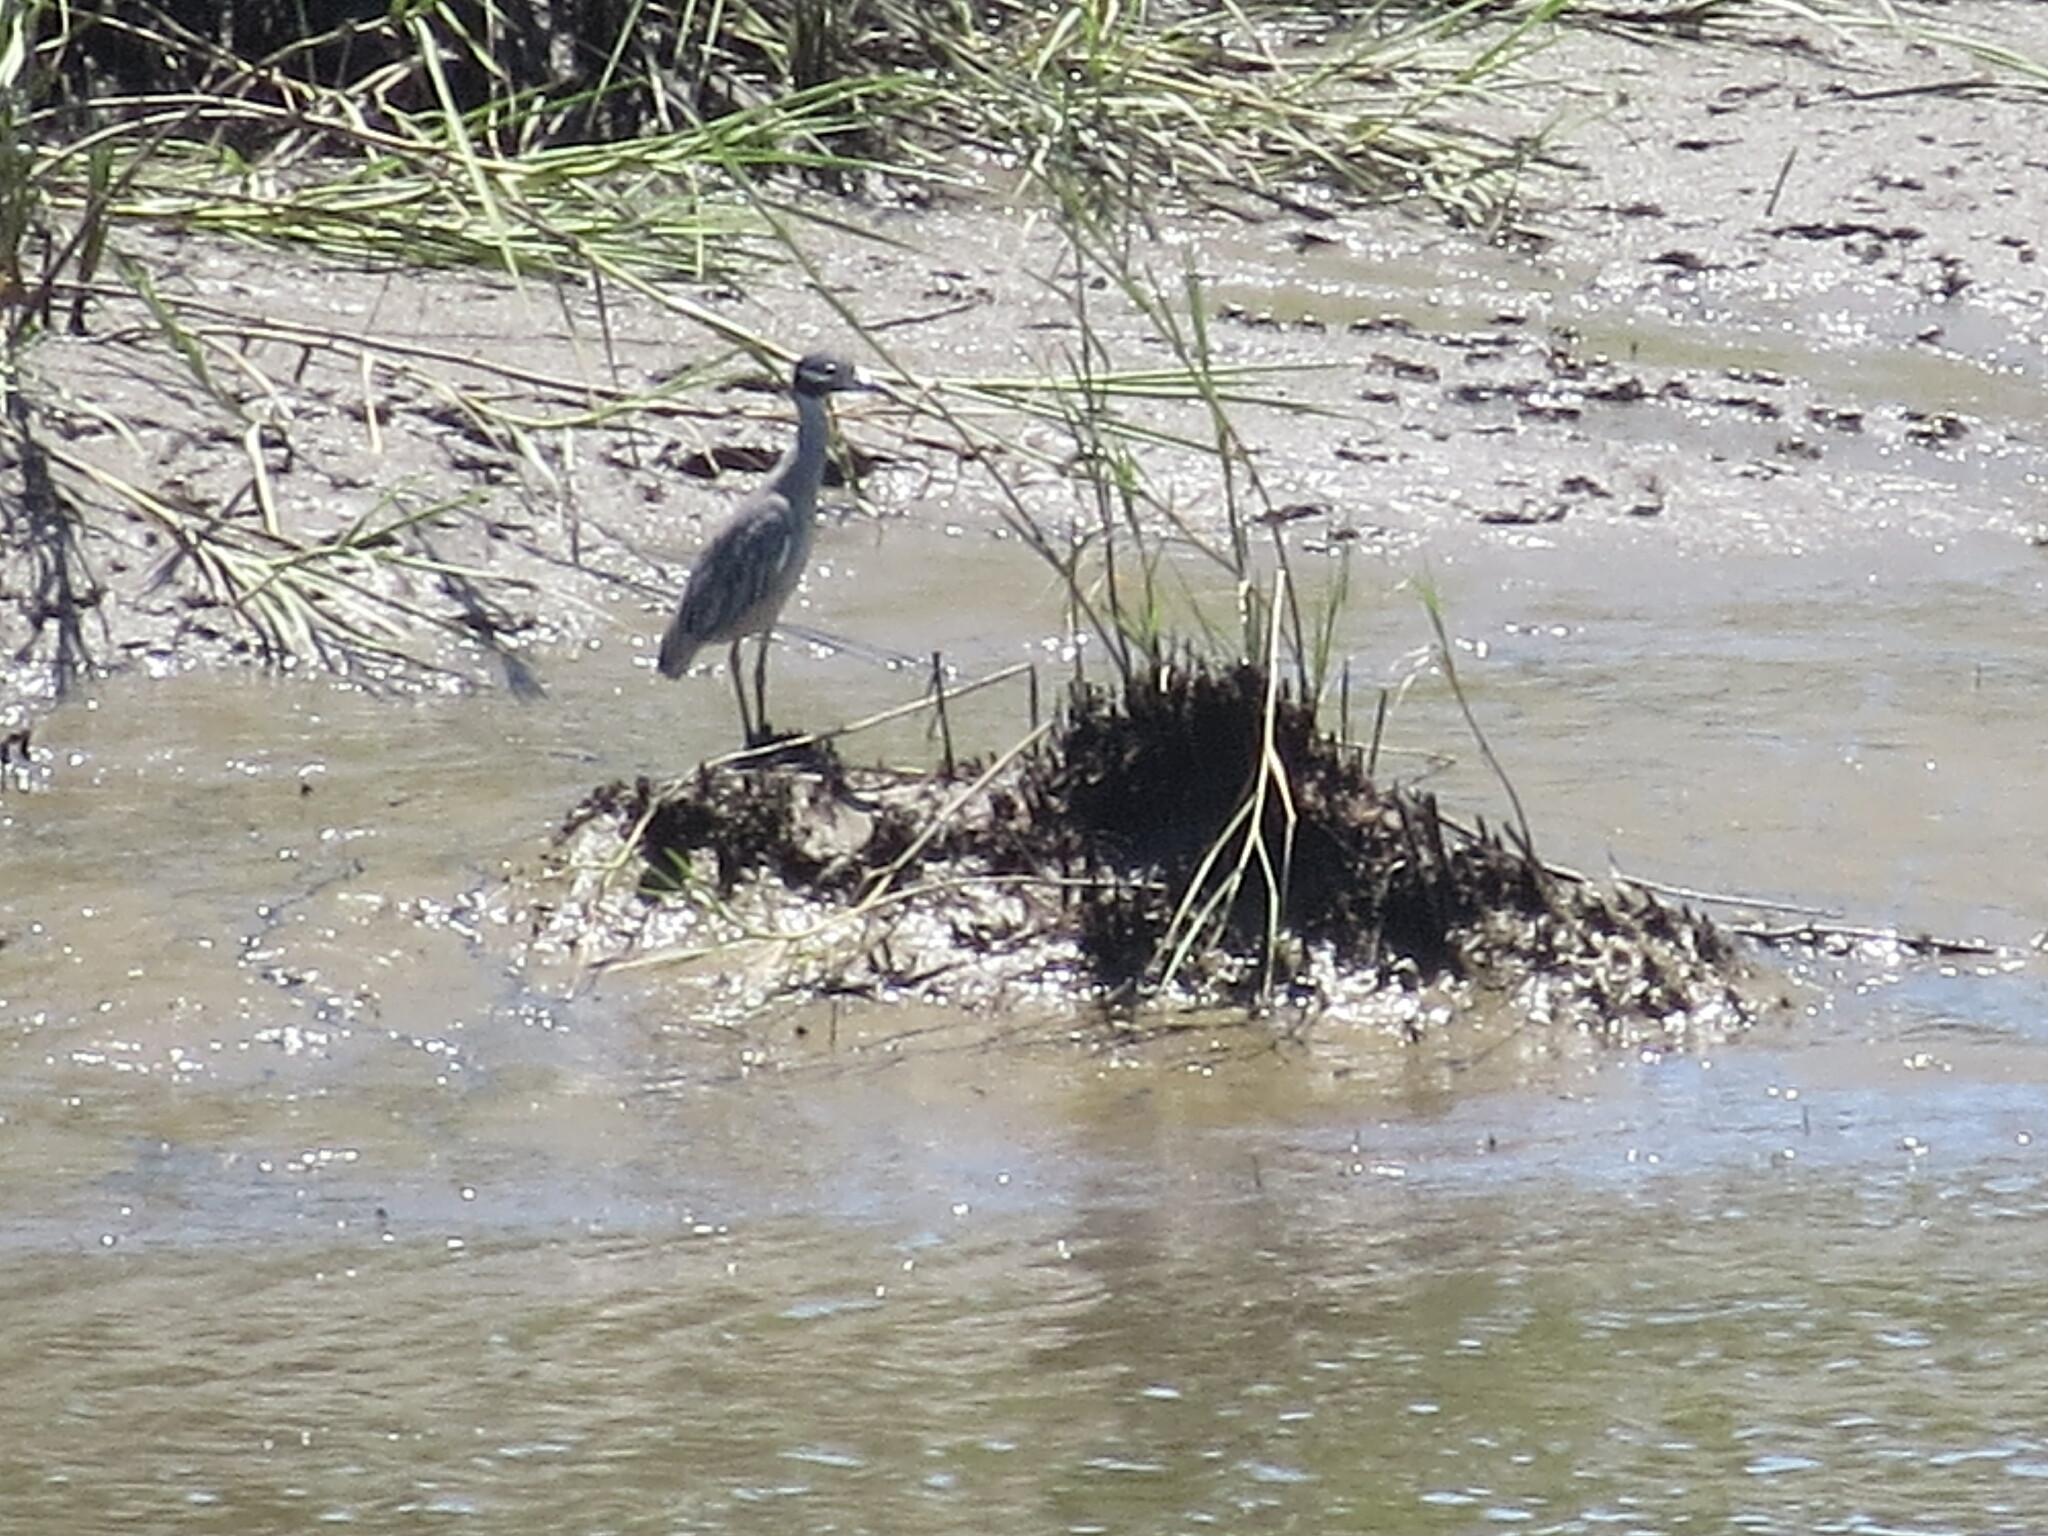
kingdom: Animalia
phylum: Chordata
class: Aves
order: Pelecaniformes
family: Ardeidae
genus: Nyctanassa
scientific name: Nyctanassa violacea
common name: Yellow-crowned night heron
